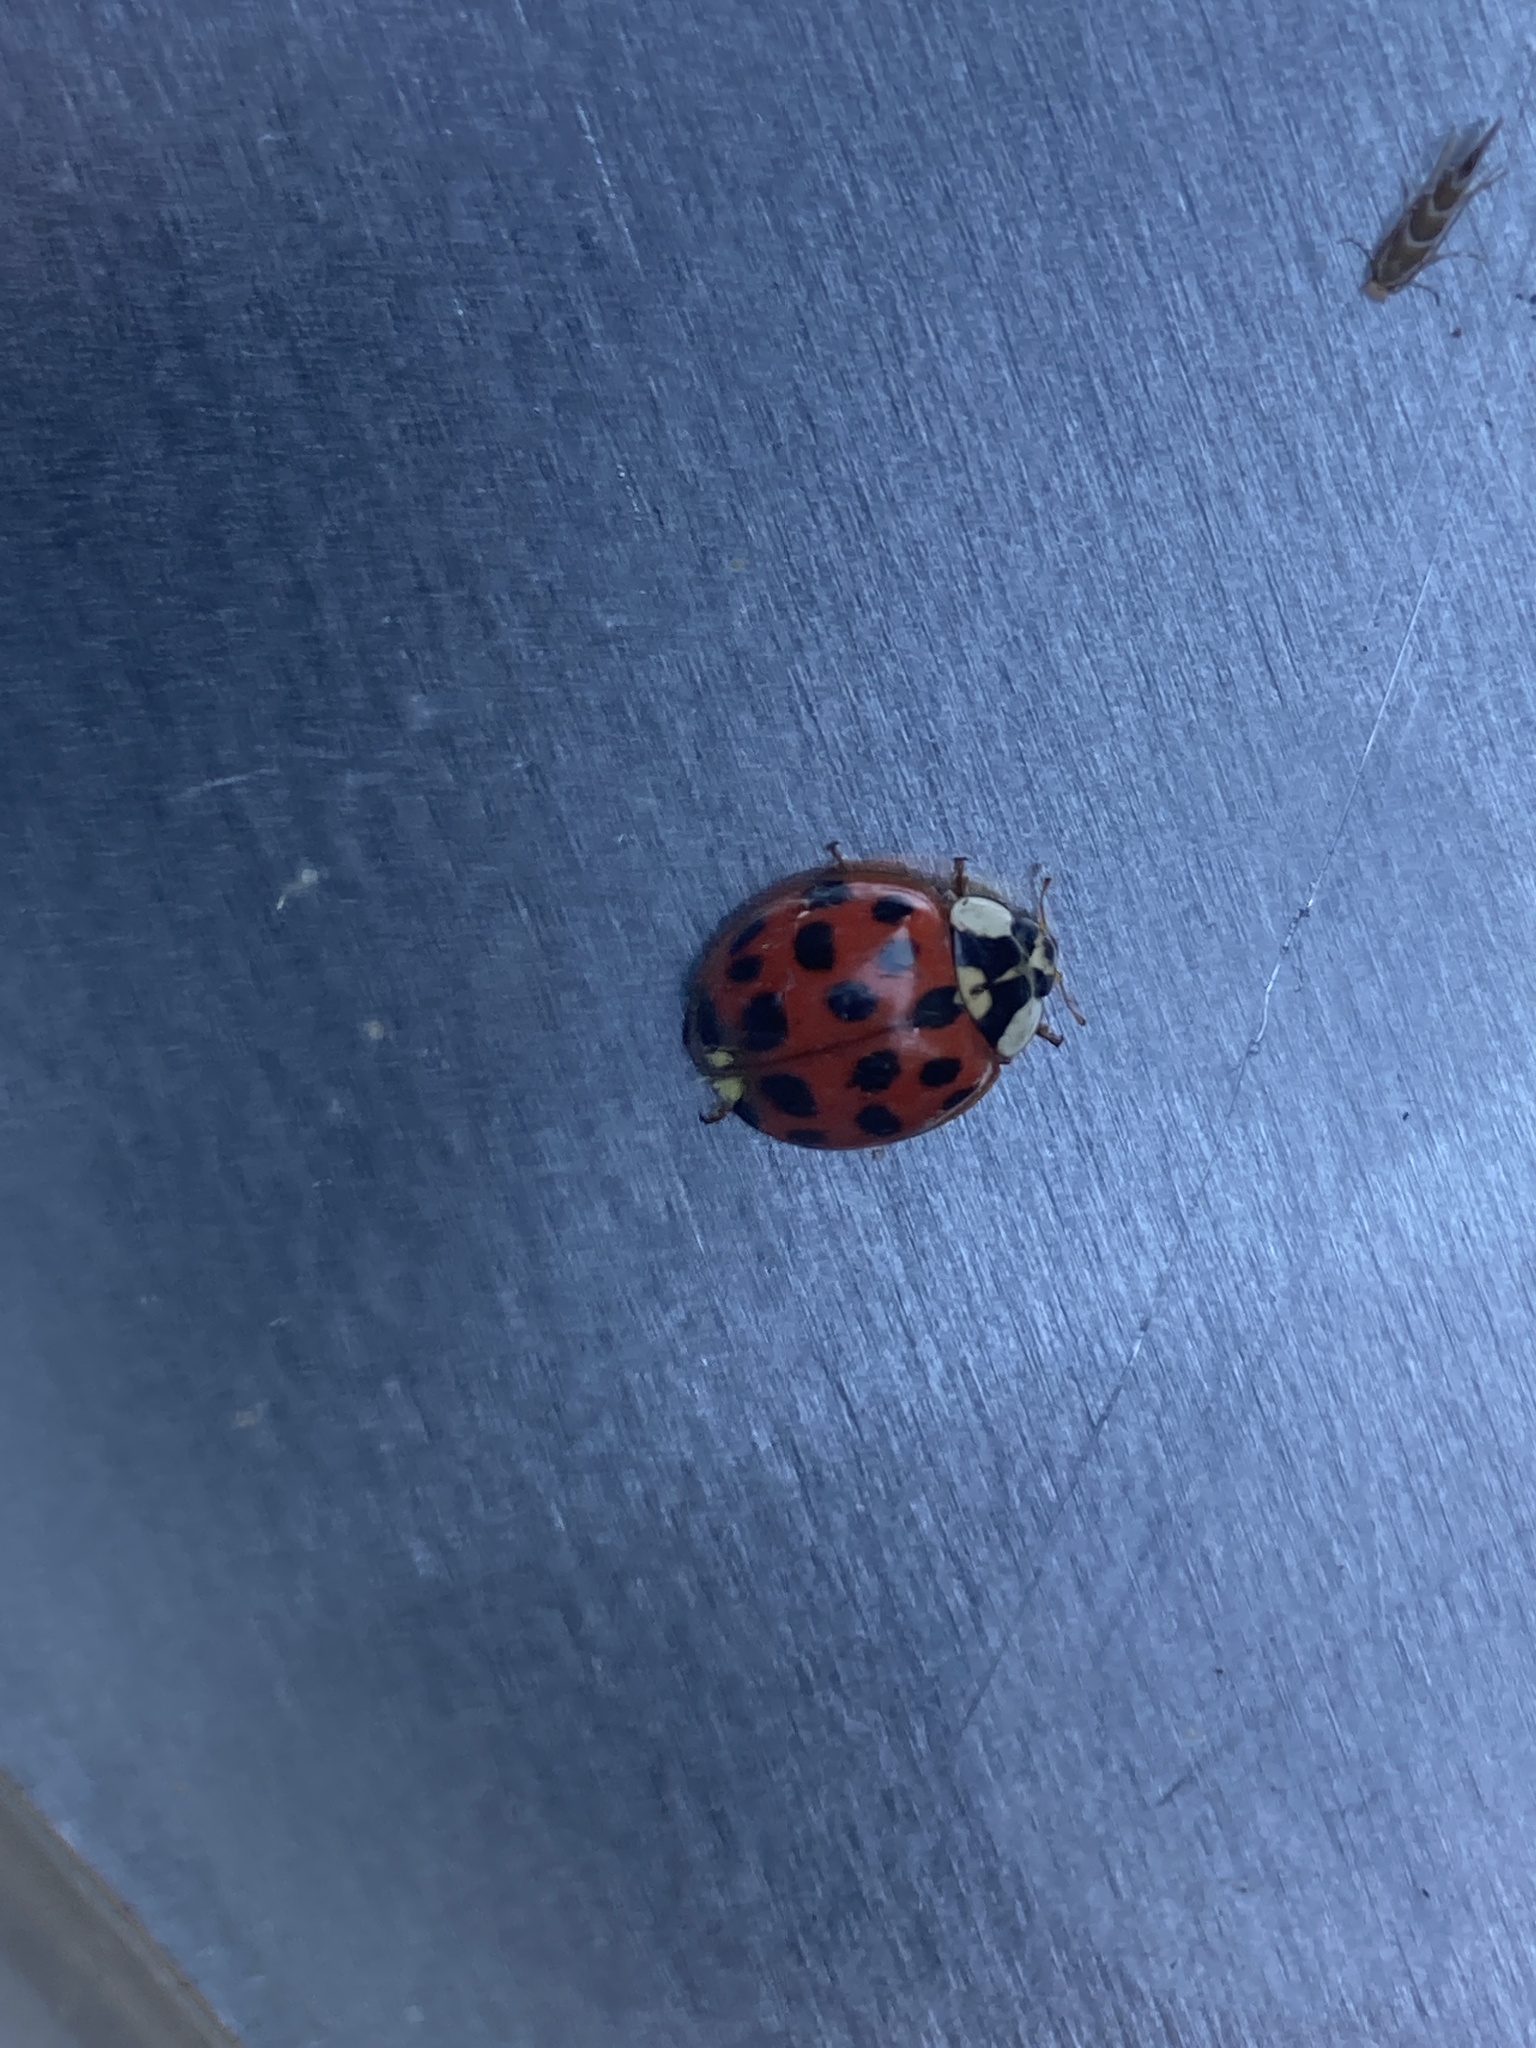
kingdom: Animalia
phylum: Arthropoda
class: Insecta
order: Coleoptera
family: Coccinellidae
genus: Harmonia
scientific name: Harmonia axyridis
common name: Harlequin ladybird
